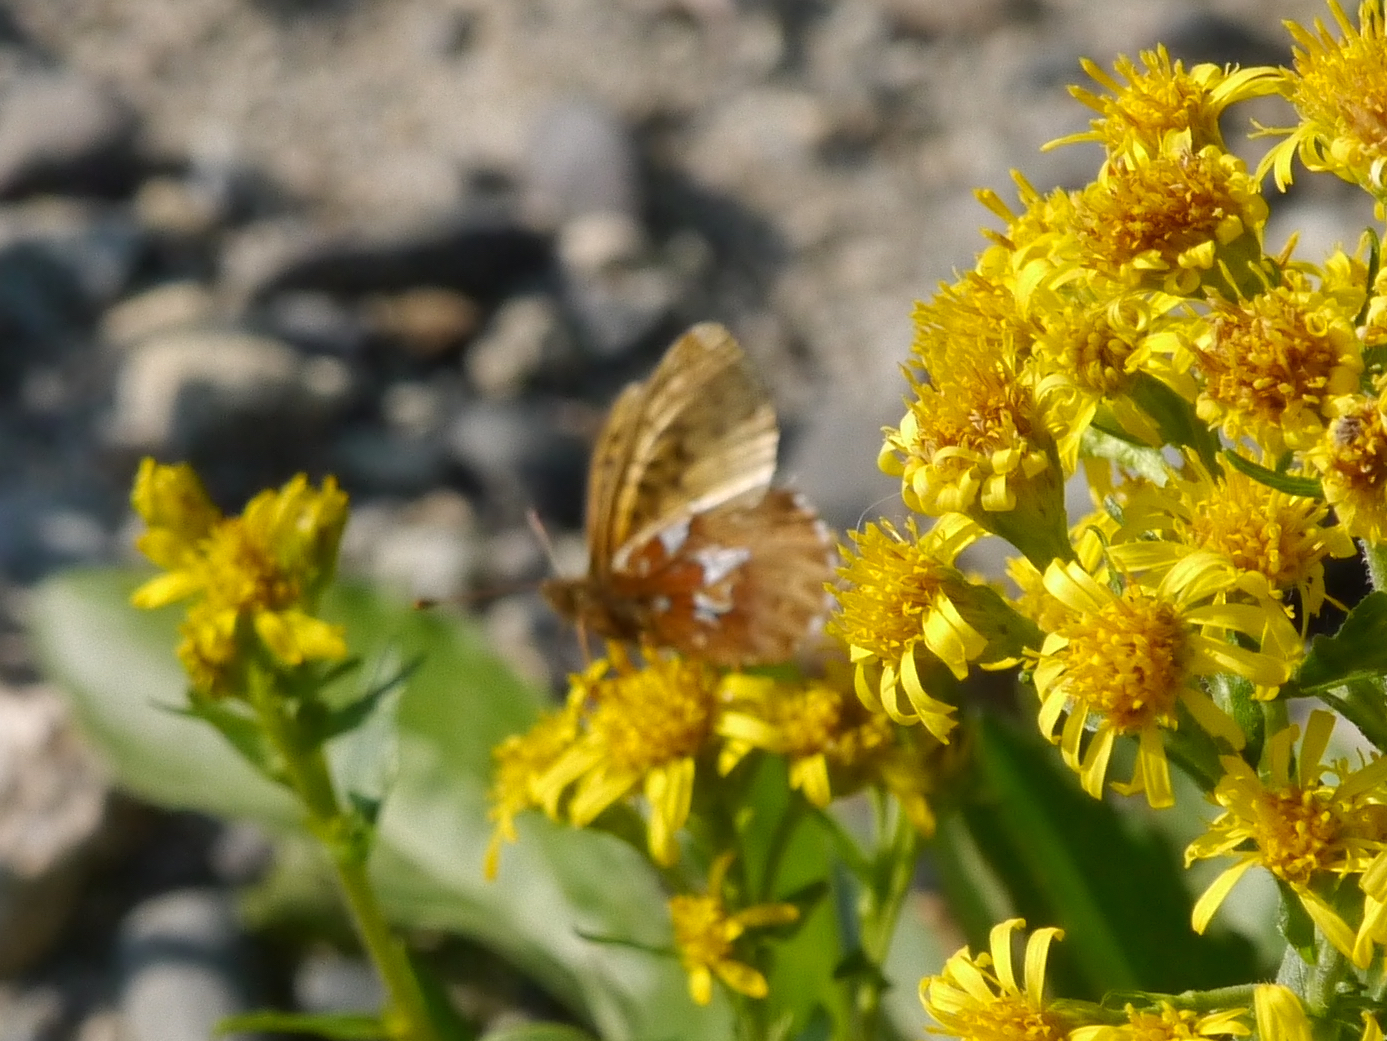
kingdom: Animalia
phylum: Arthropoda
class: Insecta
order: Lepidoptera
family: Nymphalidae
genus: Boloria
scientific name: Boloria chariclea
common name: Arctic fritillary
